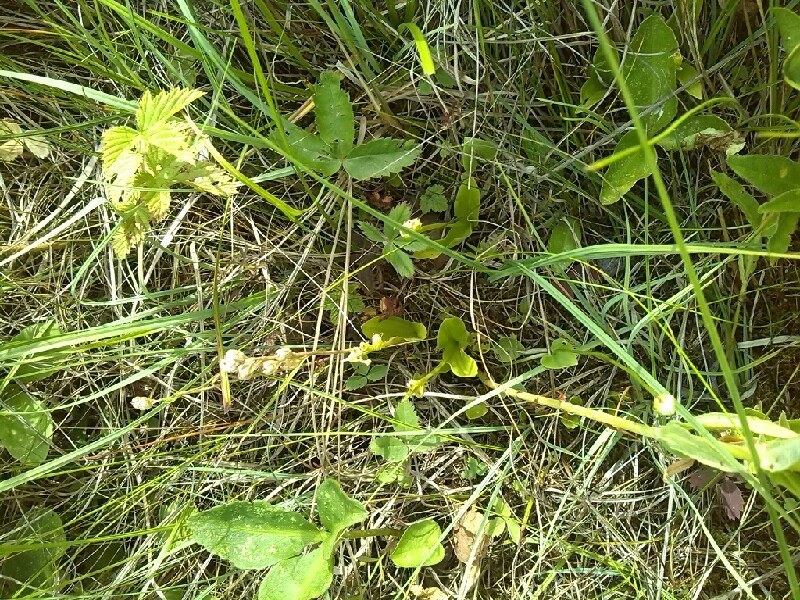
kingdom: Animalia
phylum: Arthropoda
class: Insecta
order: Coleoptera
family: Curculionidae
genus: Liparis
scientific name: Liparis loeselii
